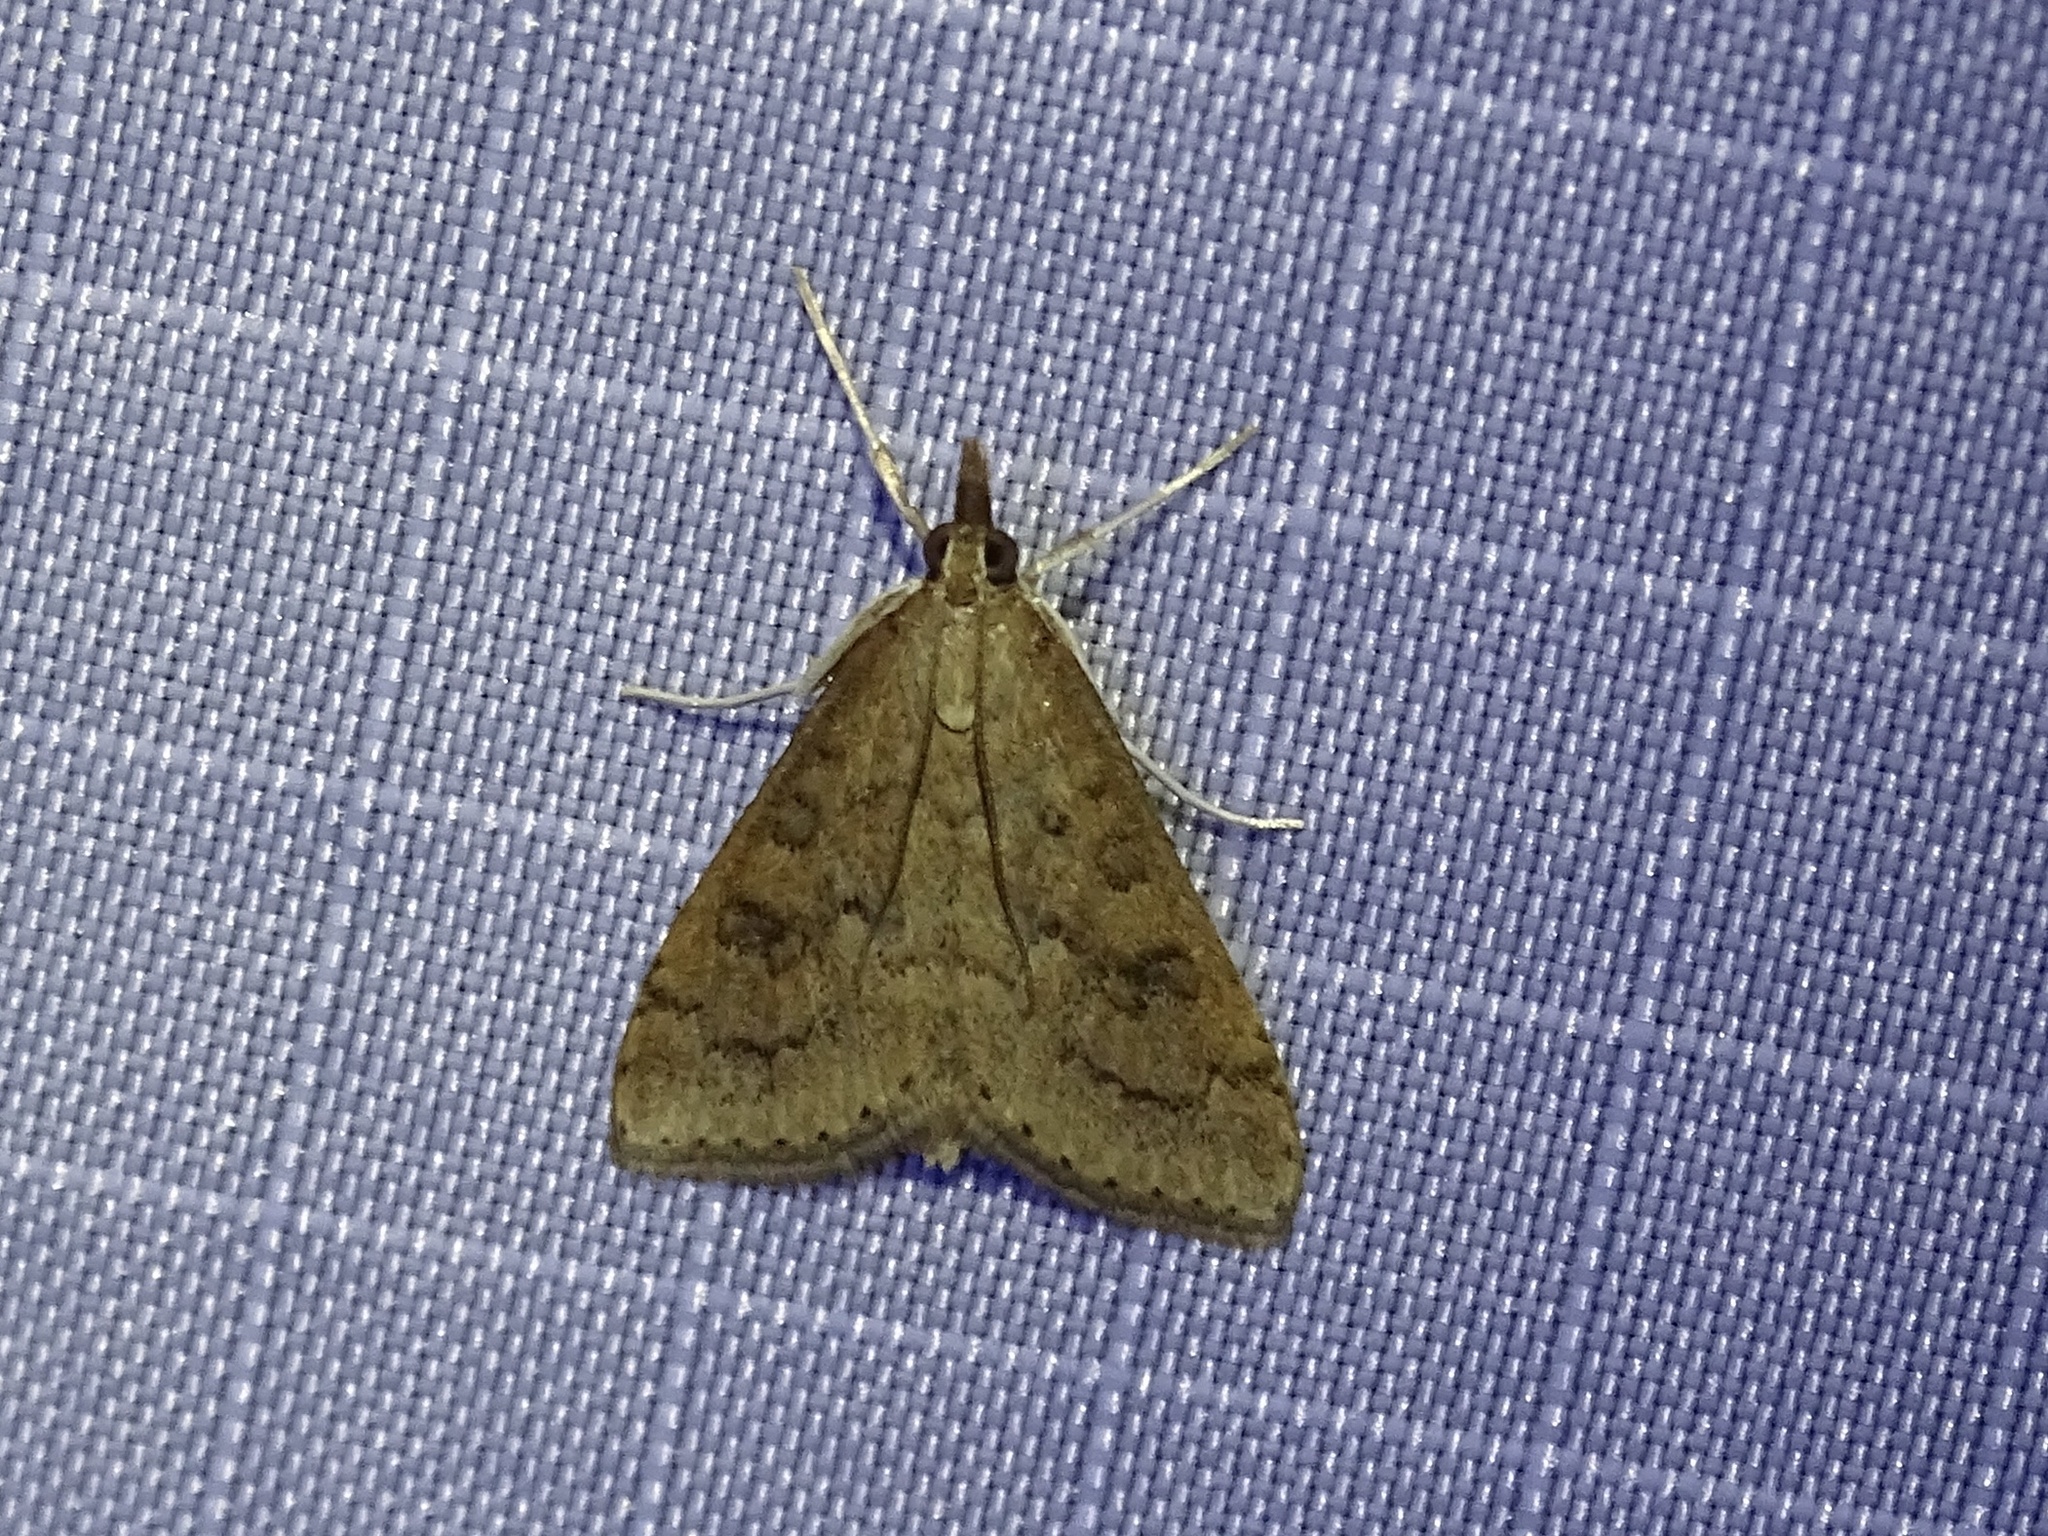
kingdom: Animalia
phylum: Arthropoda
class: Insecta
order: Lepidoptera
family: Crambidae
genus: Udea
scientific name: Udea rubigalis
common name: Celery leaftier moth
